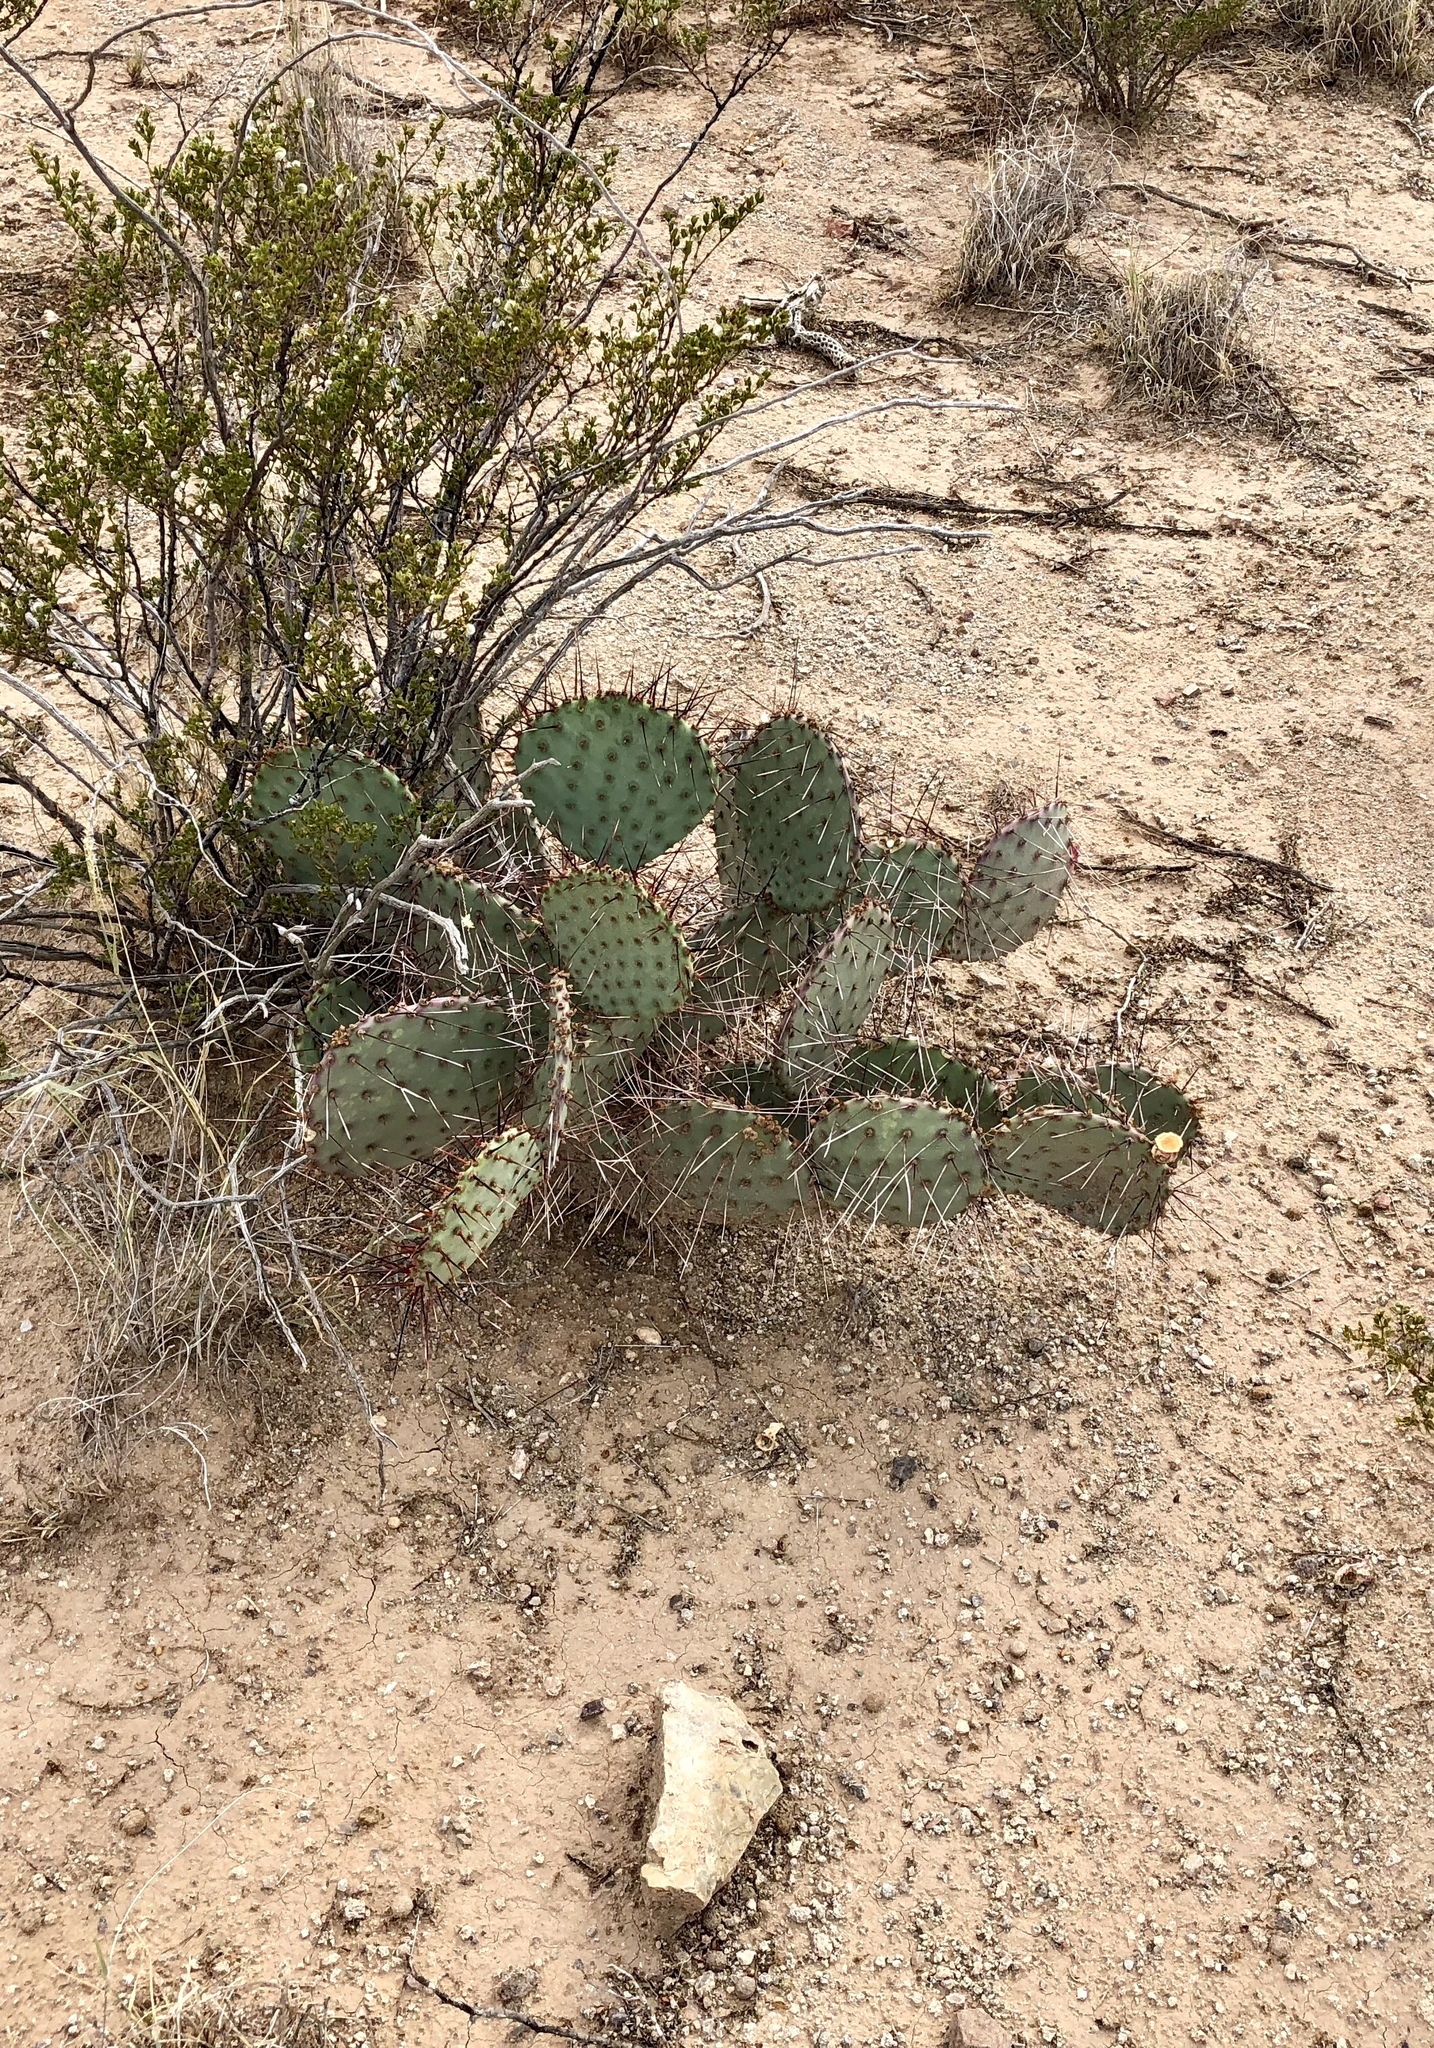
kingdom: Plantae
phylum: Tracheophyta
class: Magnoliopsida
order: Caryophyllales
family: Cactaceae
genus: Opuntia
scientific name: Opuntia macrocentra
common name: Purple prickly-pear
